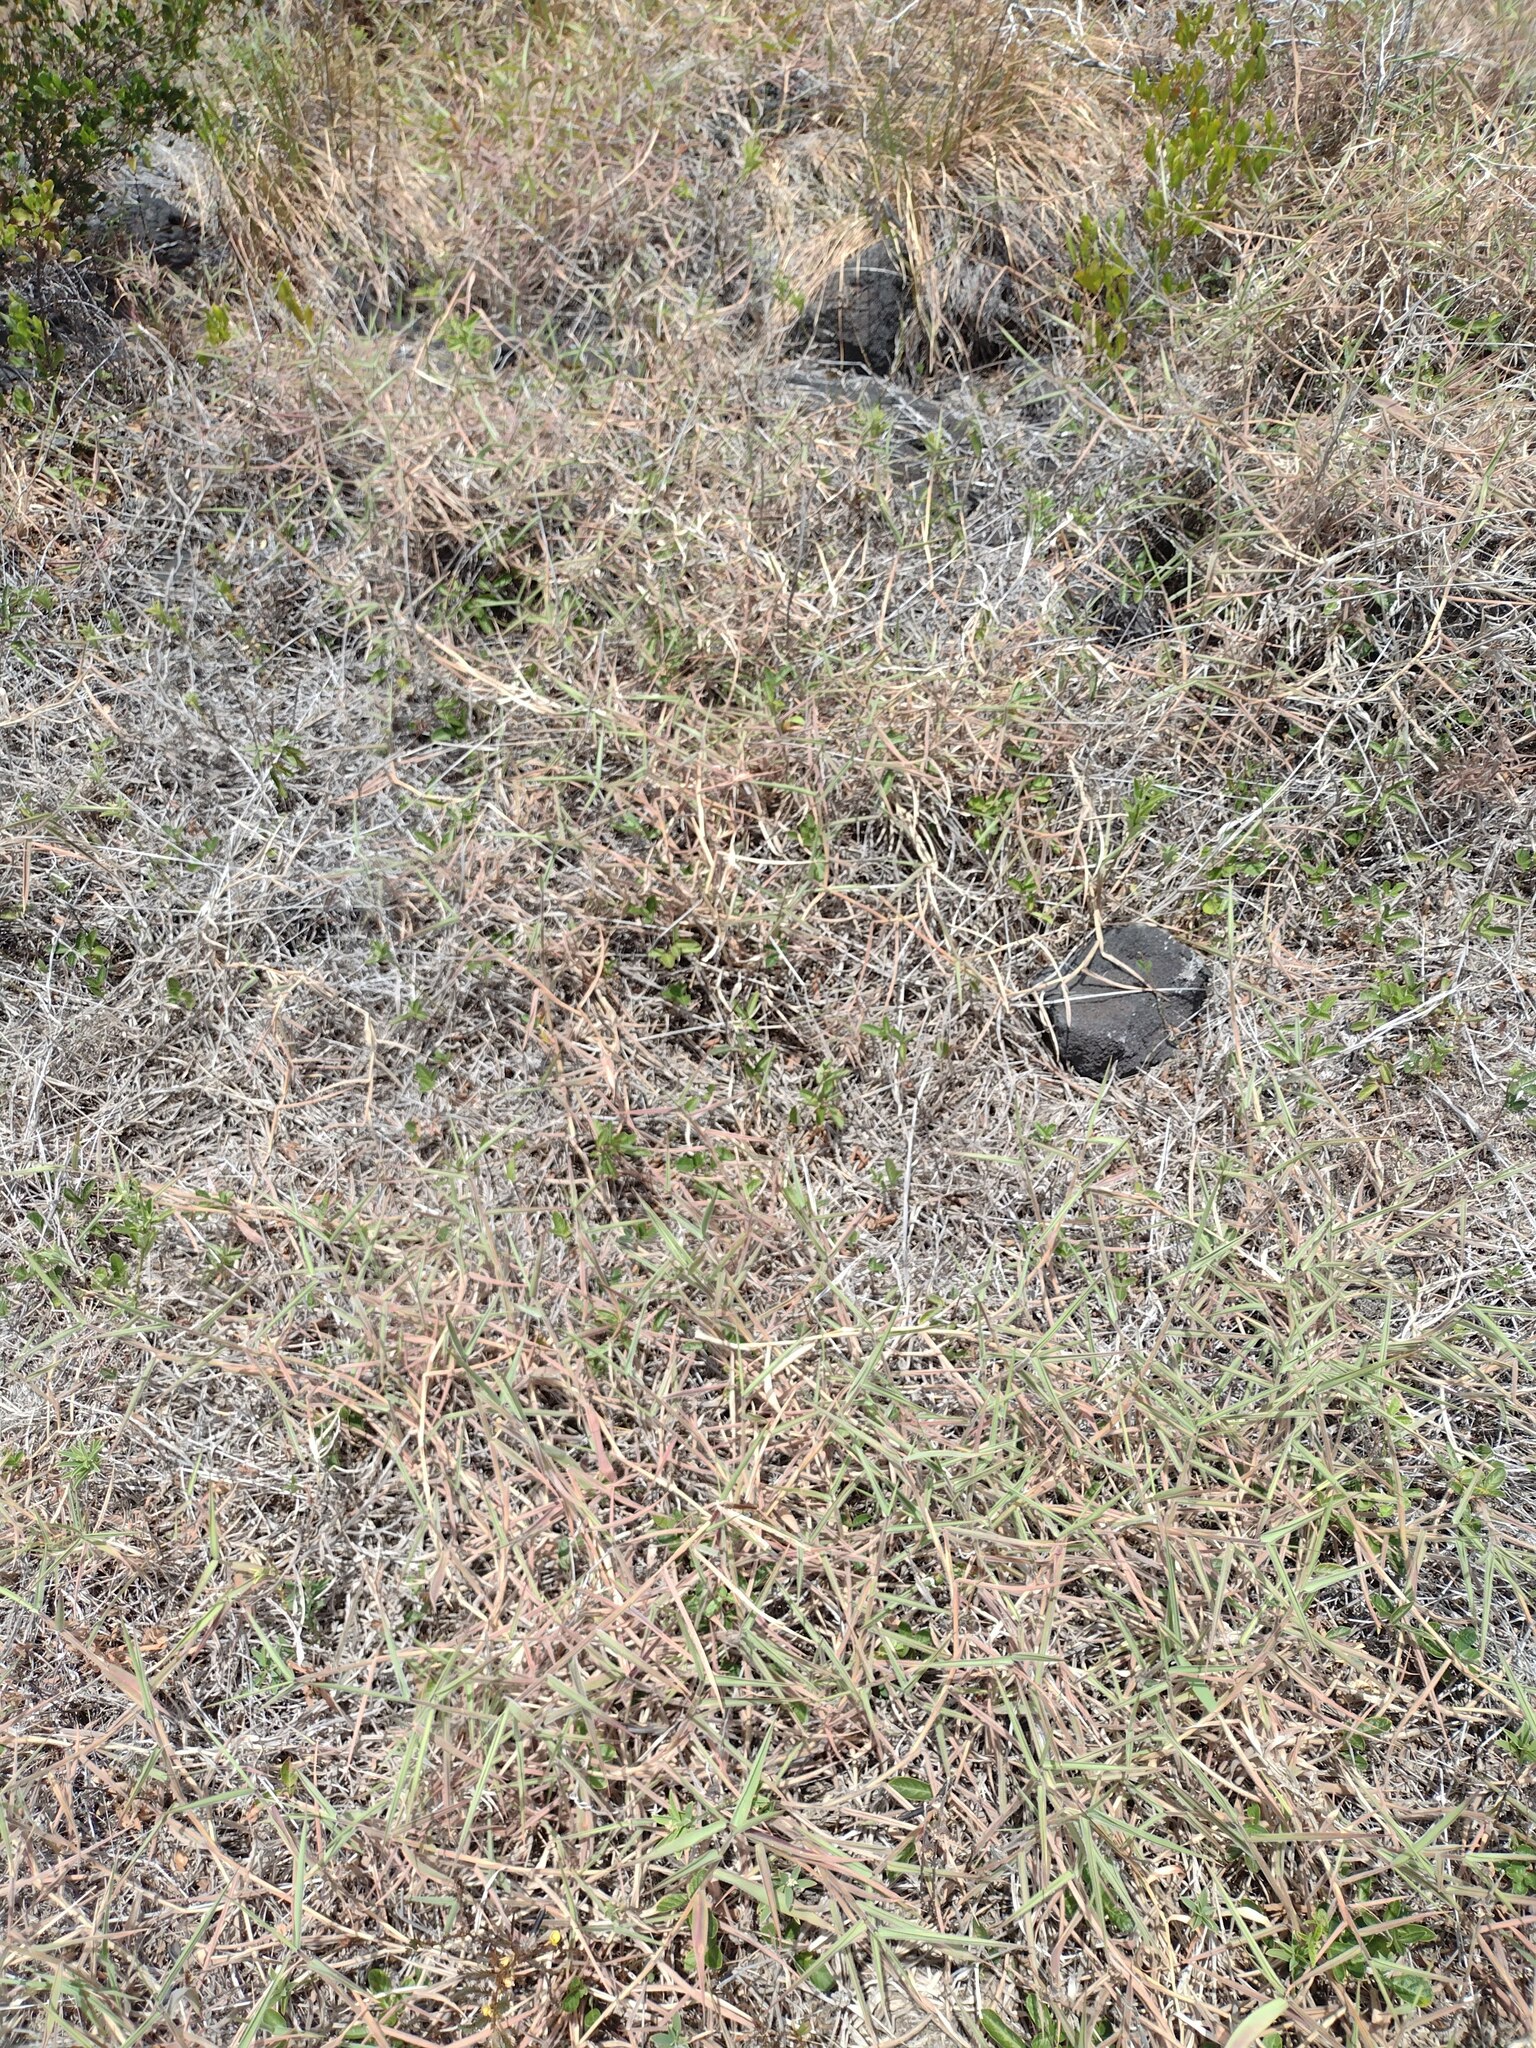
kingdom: Plantae
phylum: Tracheophyta
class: Liliopsida
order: Poales
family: Poaceae
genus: Melinis
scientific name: Melinis minutiflora
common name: Molassesgrass
